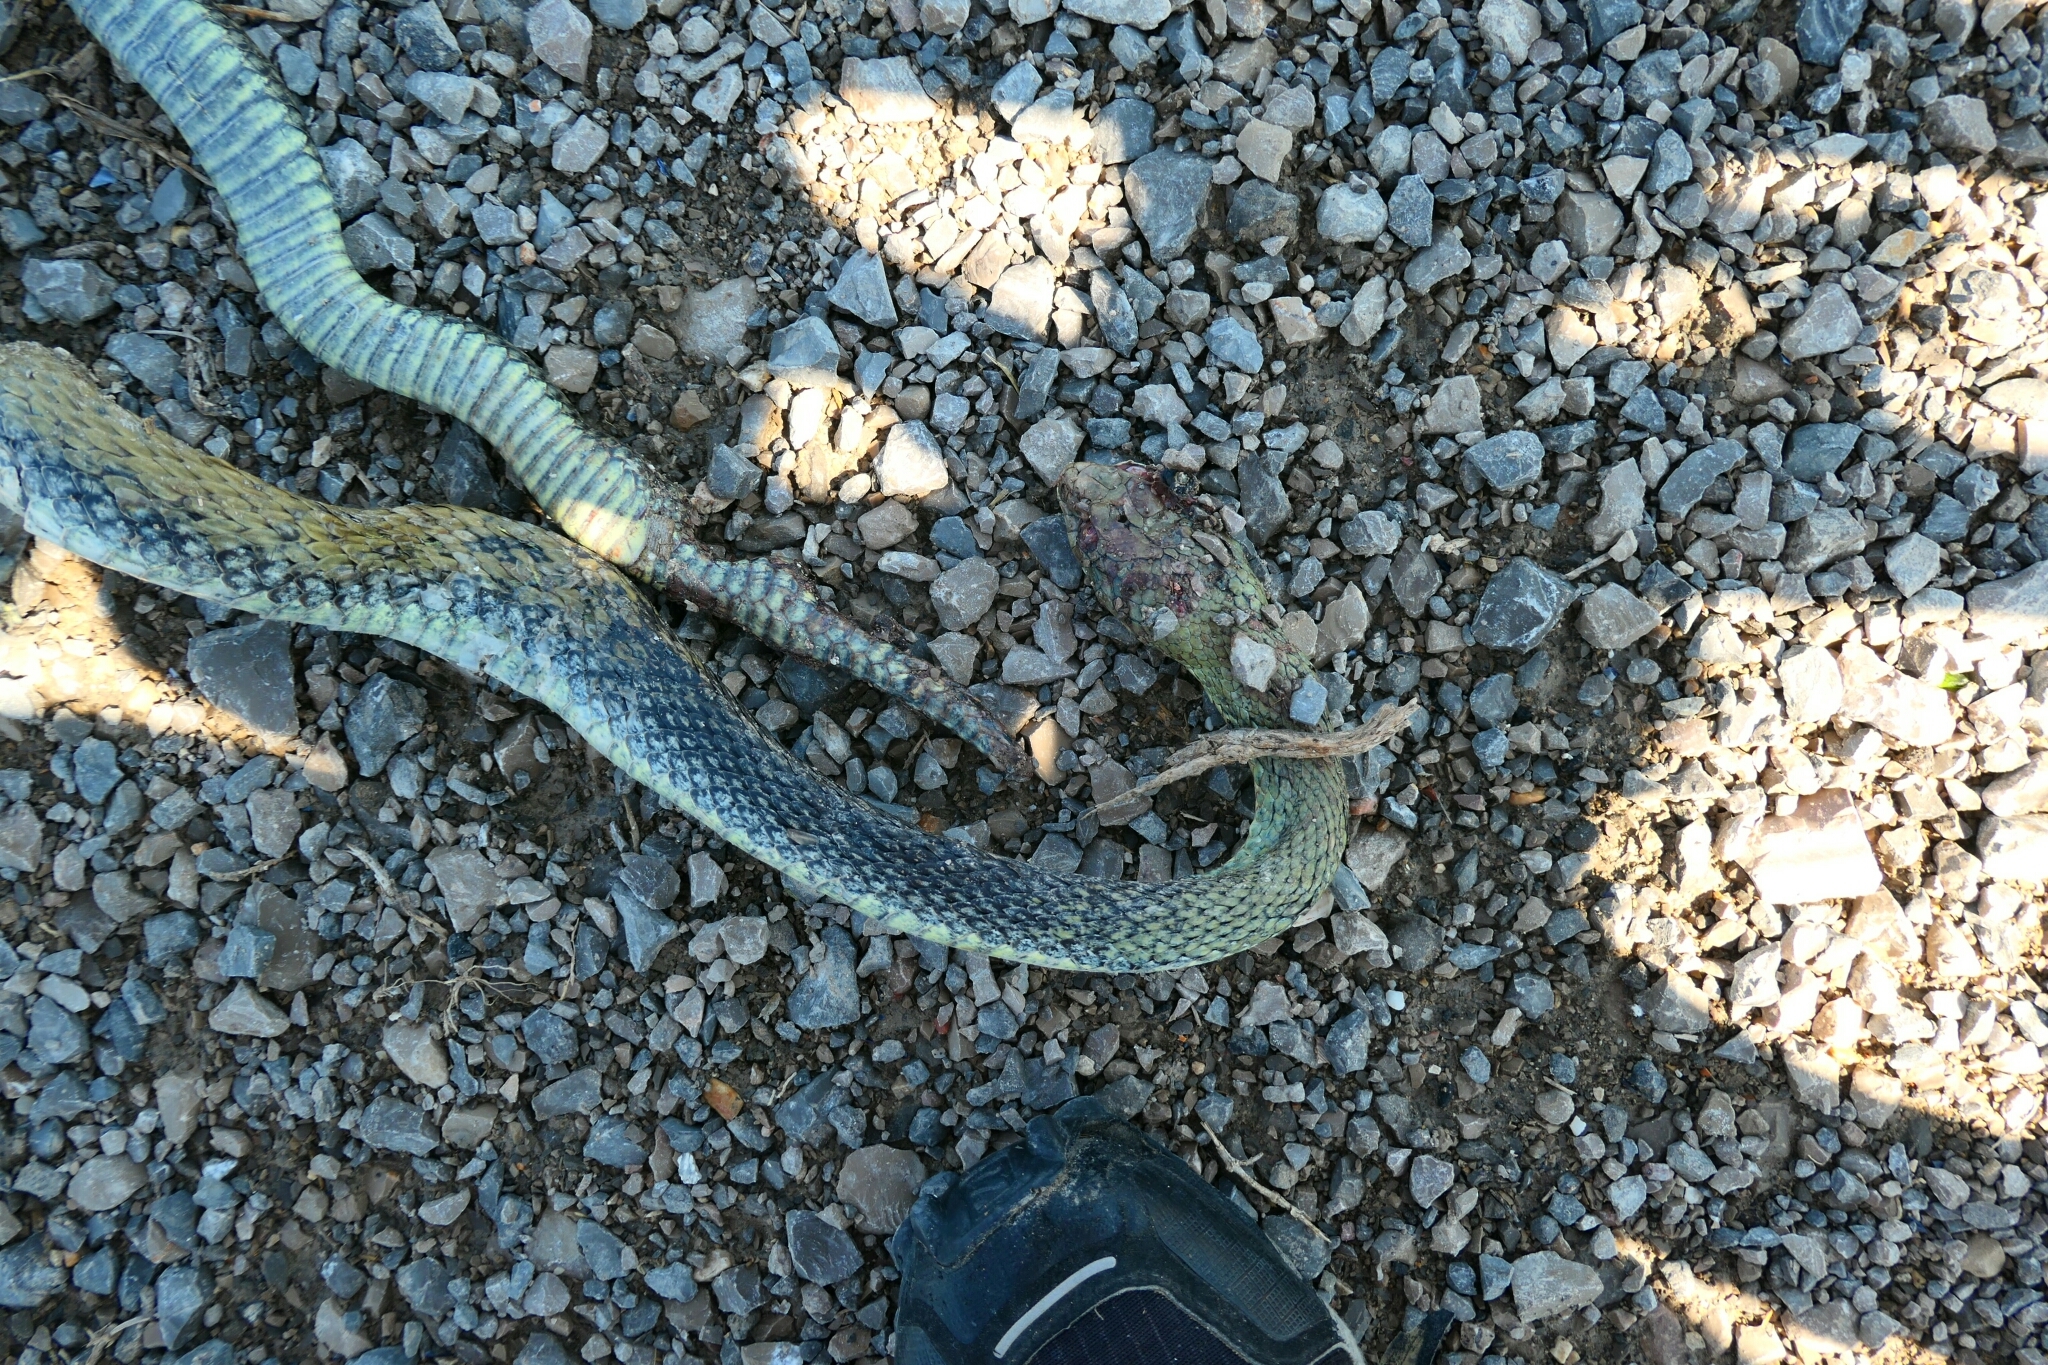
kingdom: Animalia
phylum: Chordata
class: Squamata
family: Psammophiidae
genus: Malpolon
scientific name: Malpolon monspessulanus
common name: Montpellier snake
